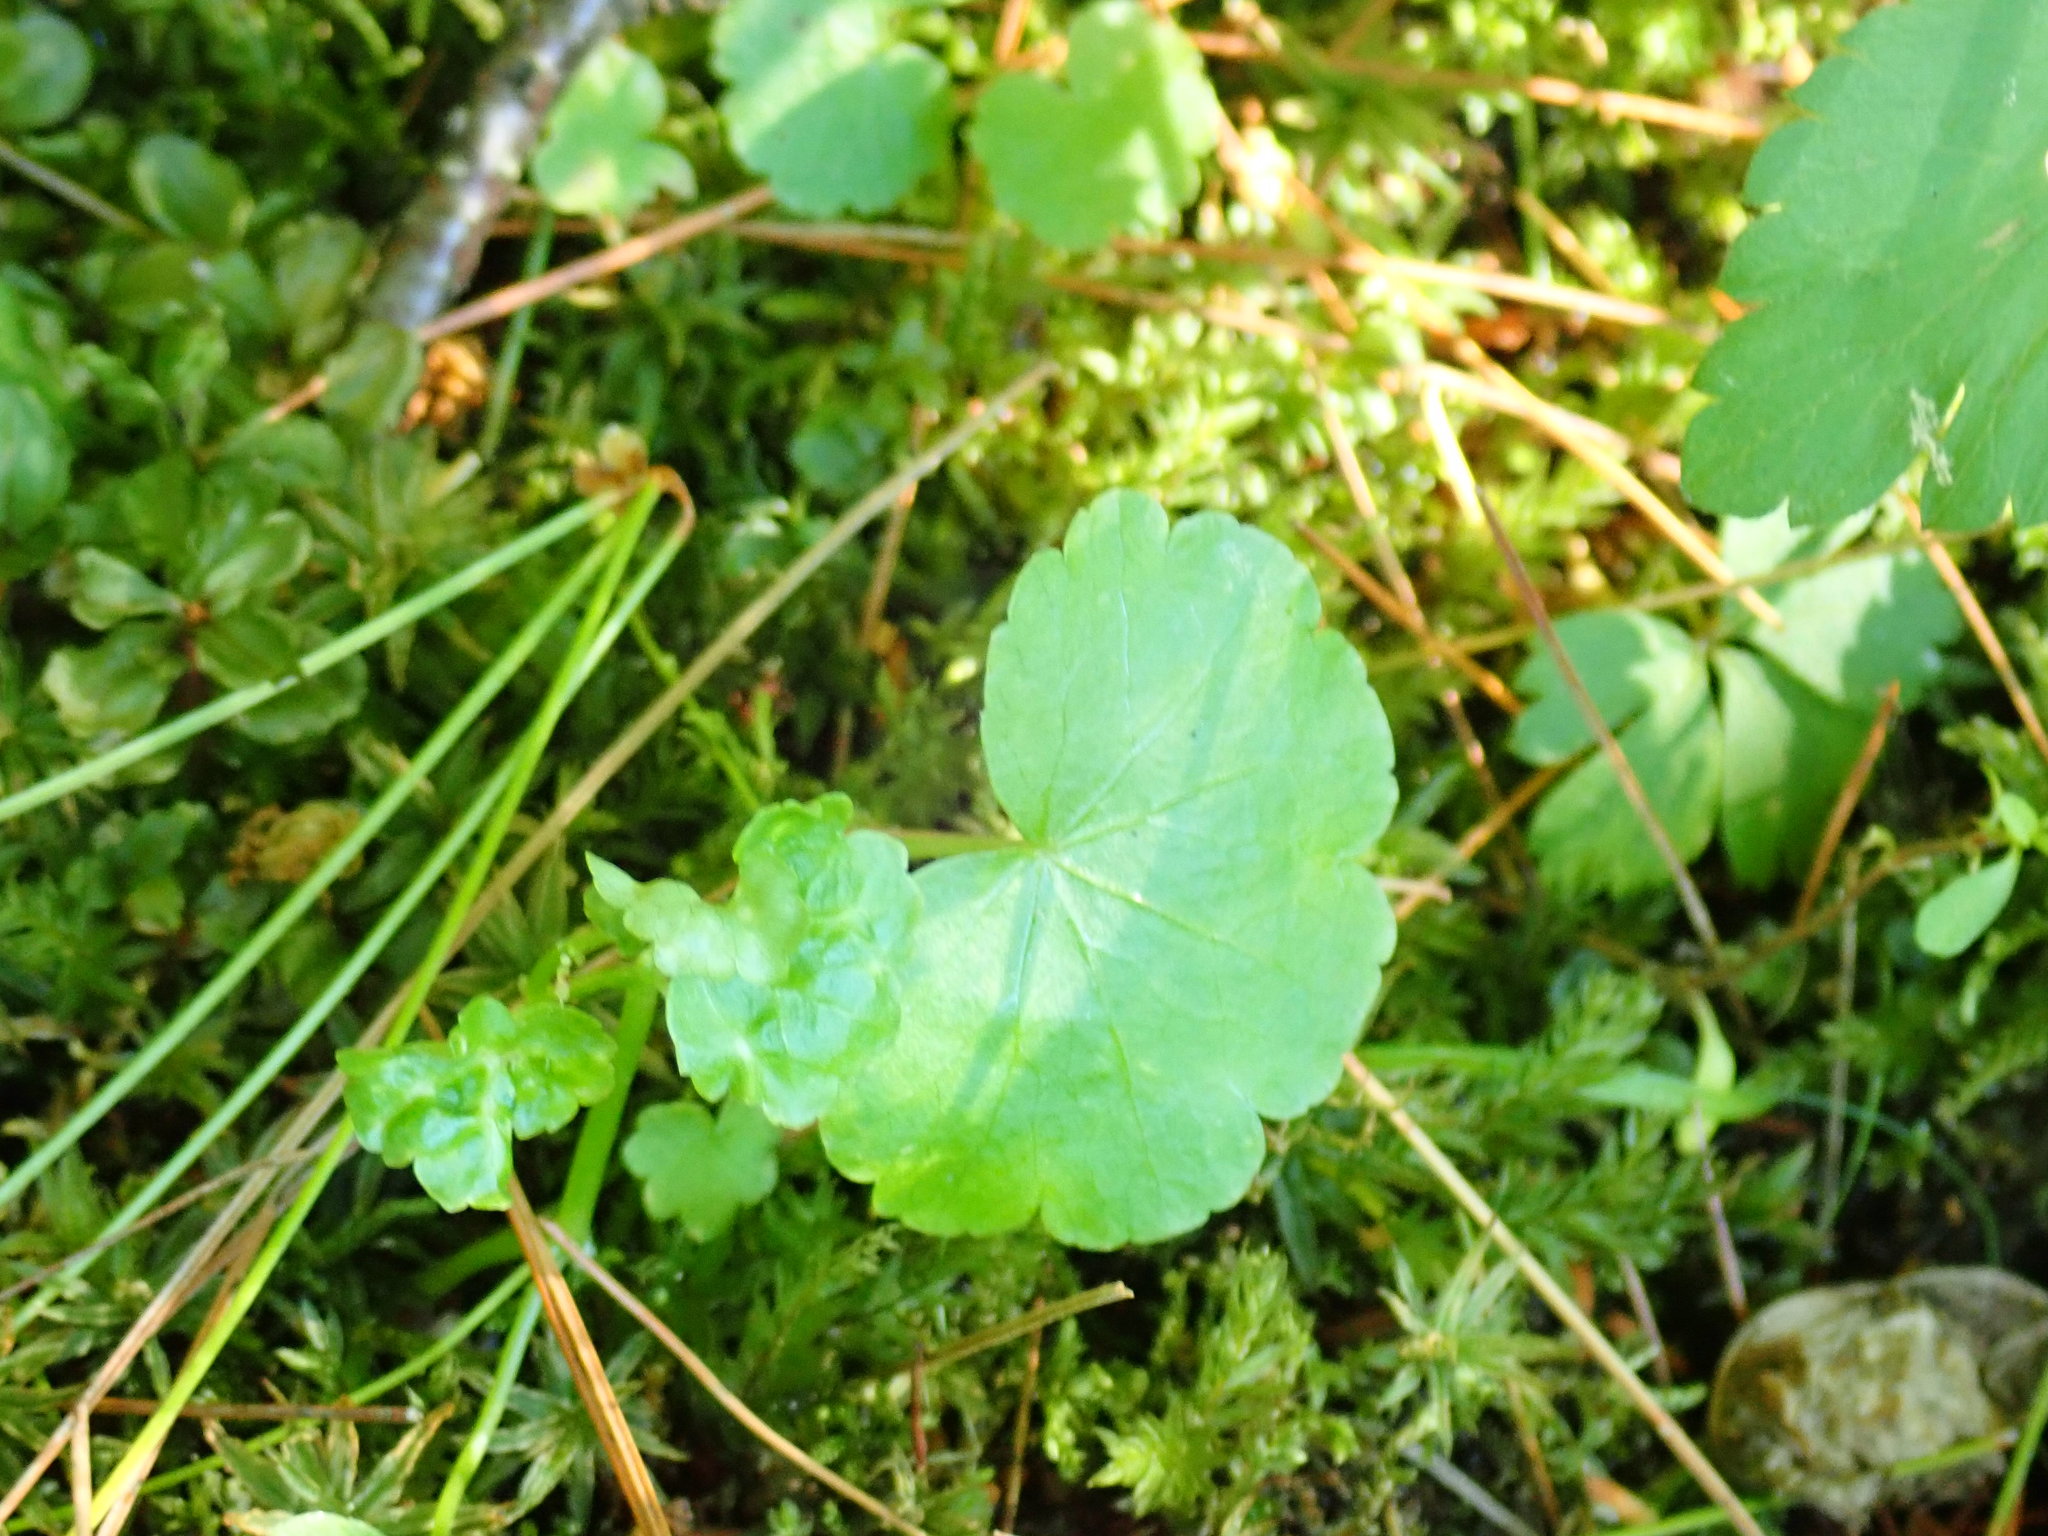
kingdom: Plantae
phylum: Tracheophyta
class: Magnoliopsida
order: Apiales
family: Araliaceae
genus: Hydrocotyle
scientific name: Hydrocotyle americana
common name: American water-pennywort
